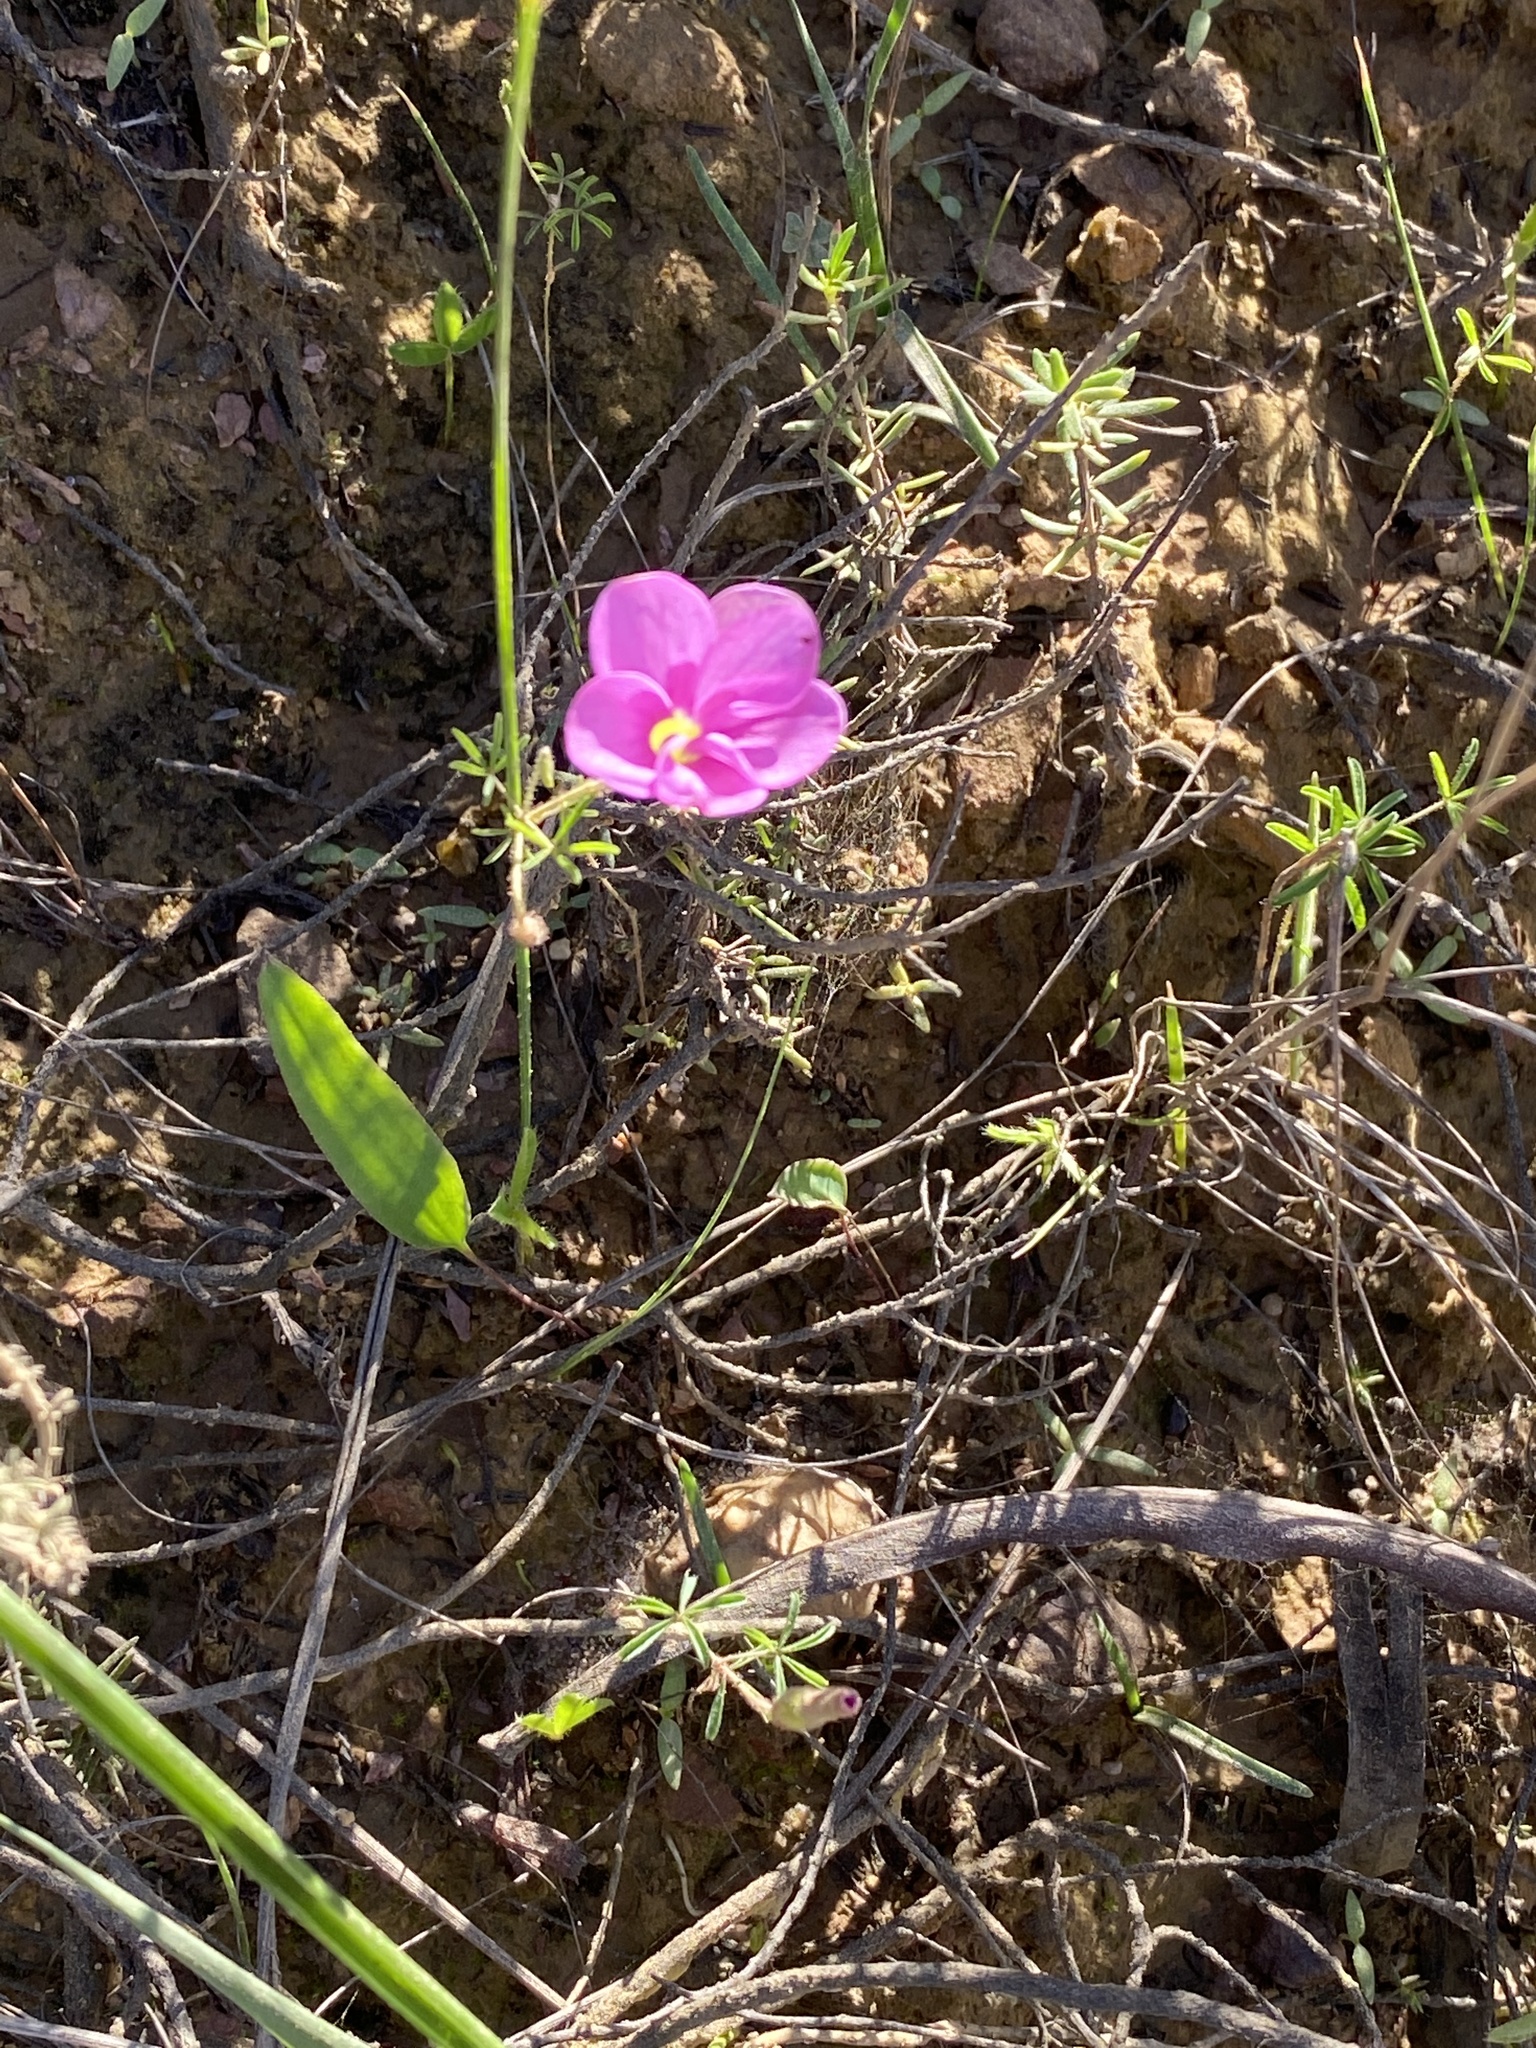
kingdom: Plantae
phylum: Tracheophyta
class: Magnoliopsida
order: Oxalidales
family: Oxalidaceae
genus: Oxalis
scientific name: Oxalis engleriana
